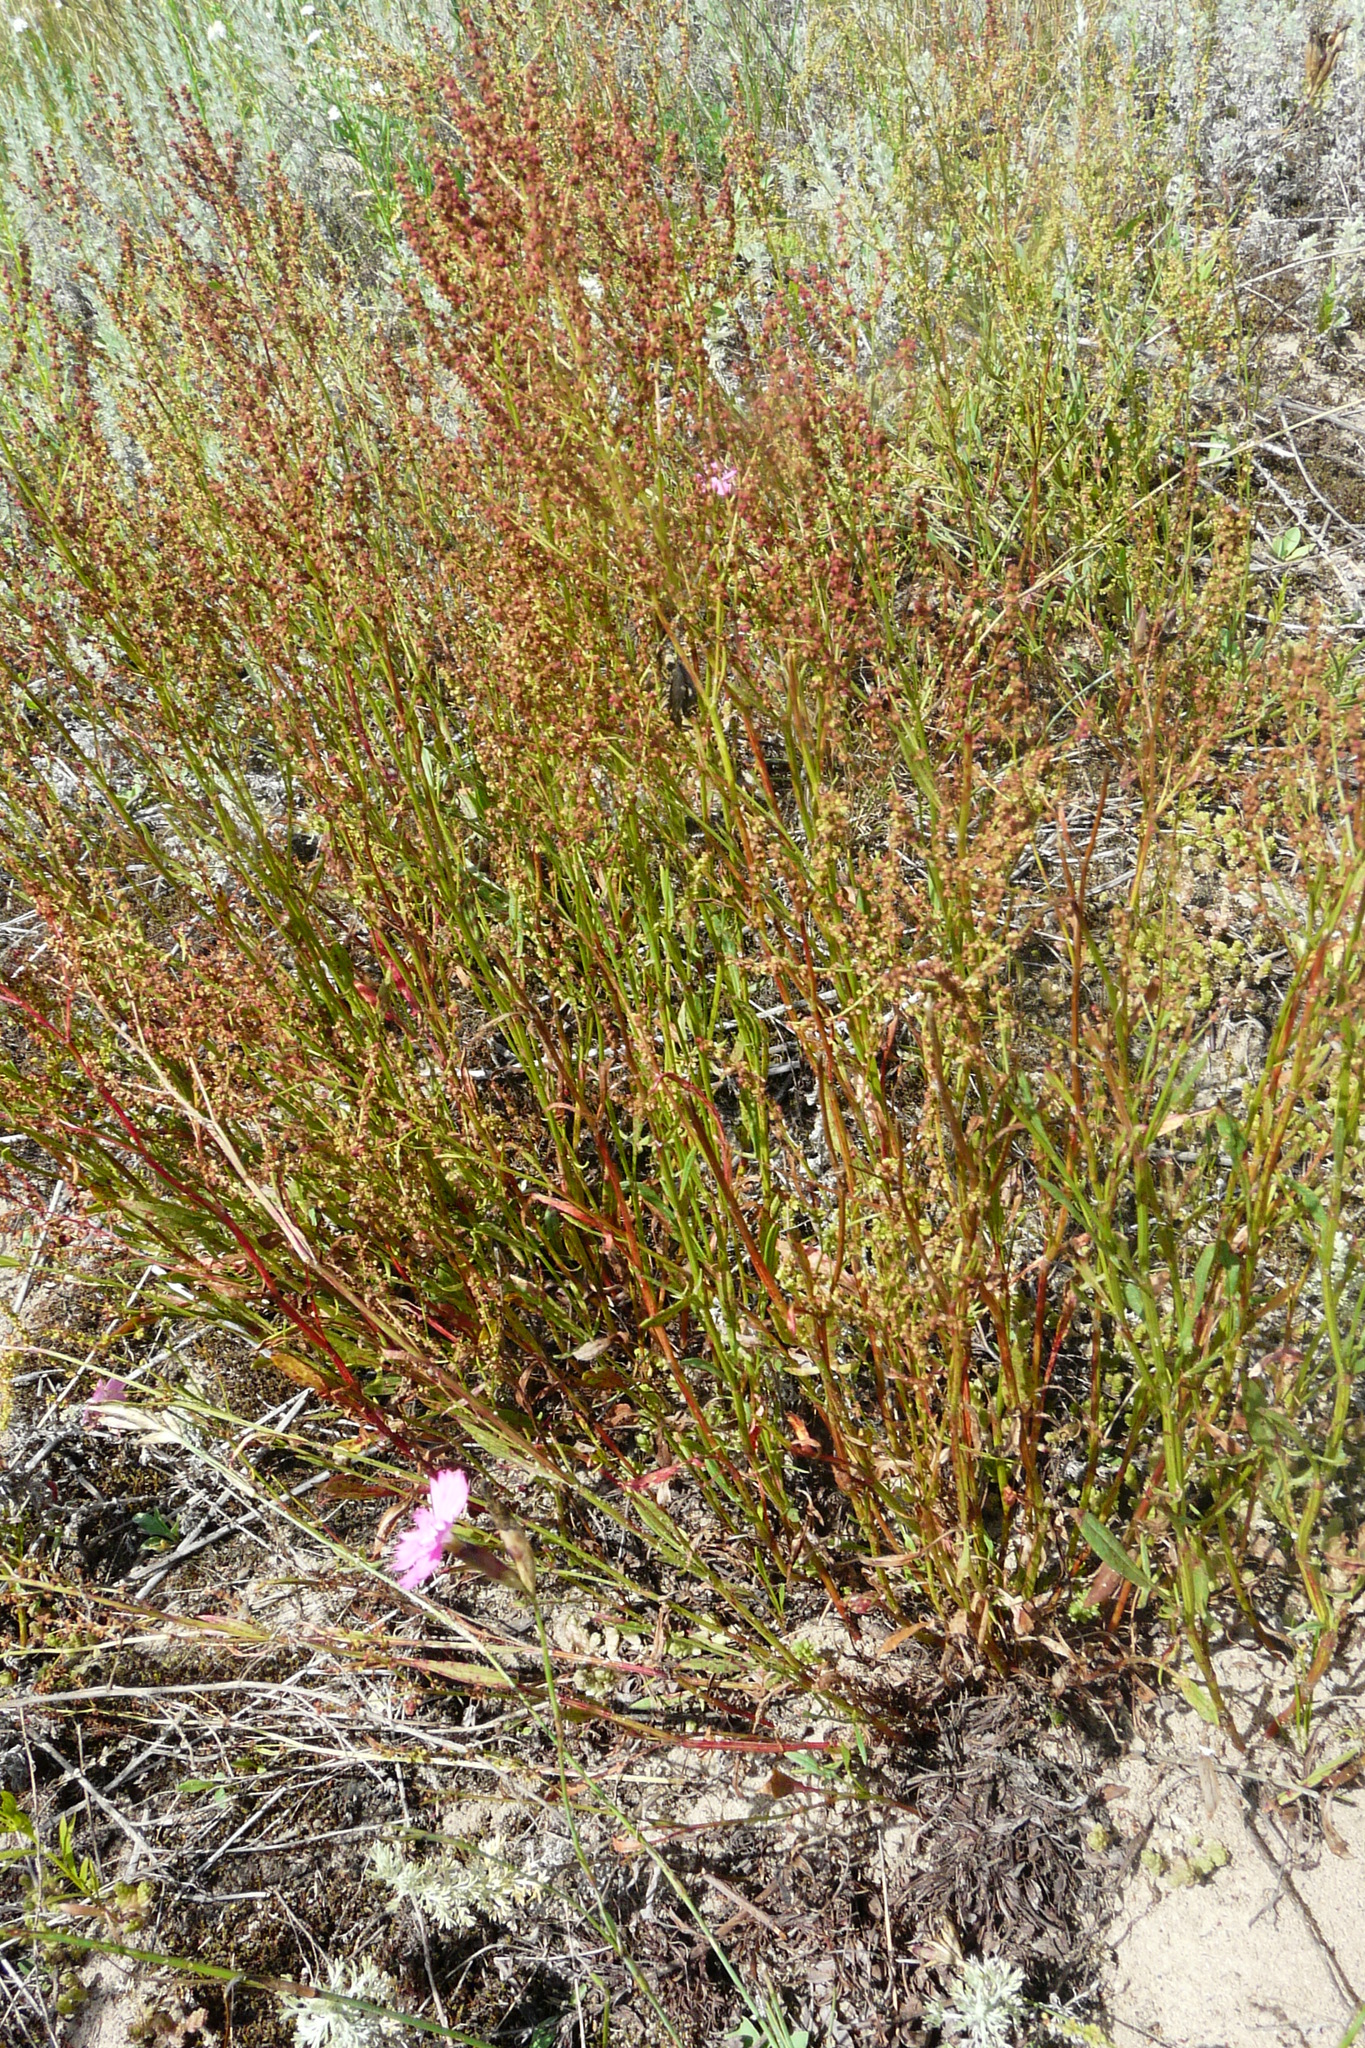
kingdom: Plantae
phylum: Tracheophyta
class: Magnoliopsida
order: Caryophyllales
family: Polygonaceae
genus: Rumex
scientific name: Rumex acetosella
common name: Common sheep sorrel
